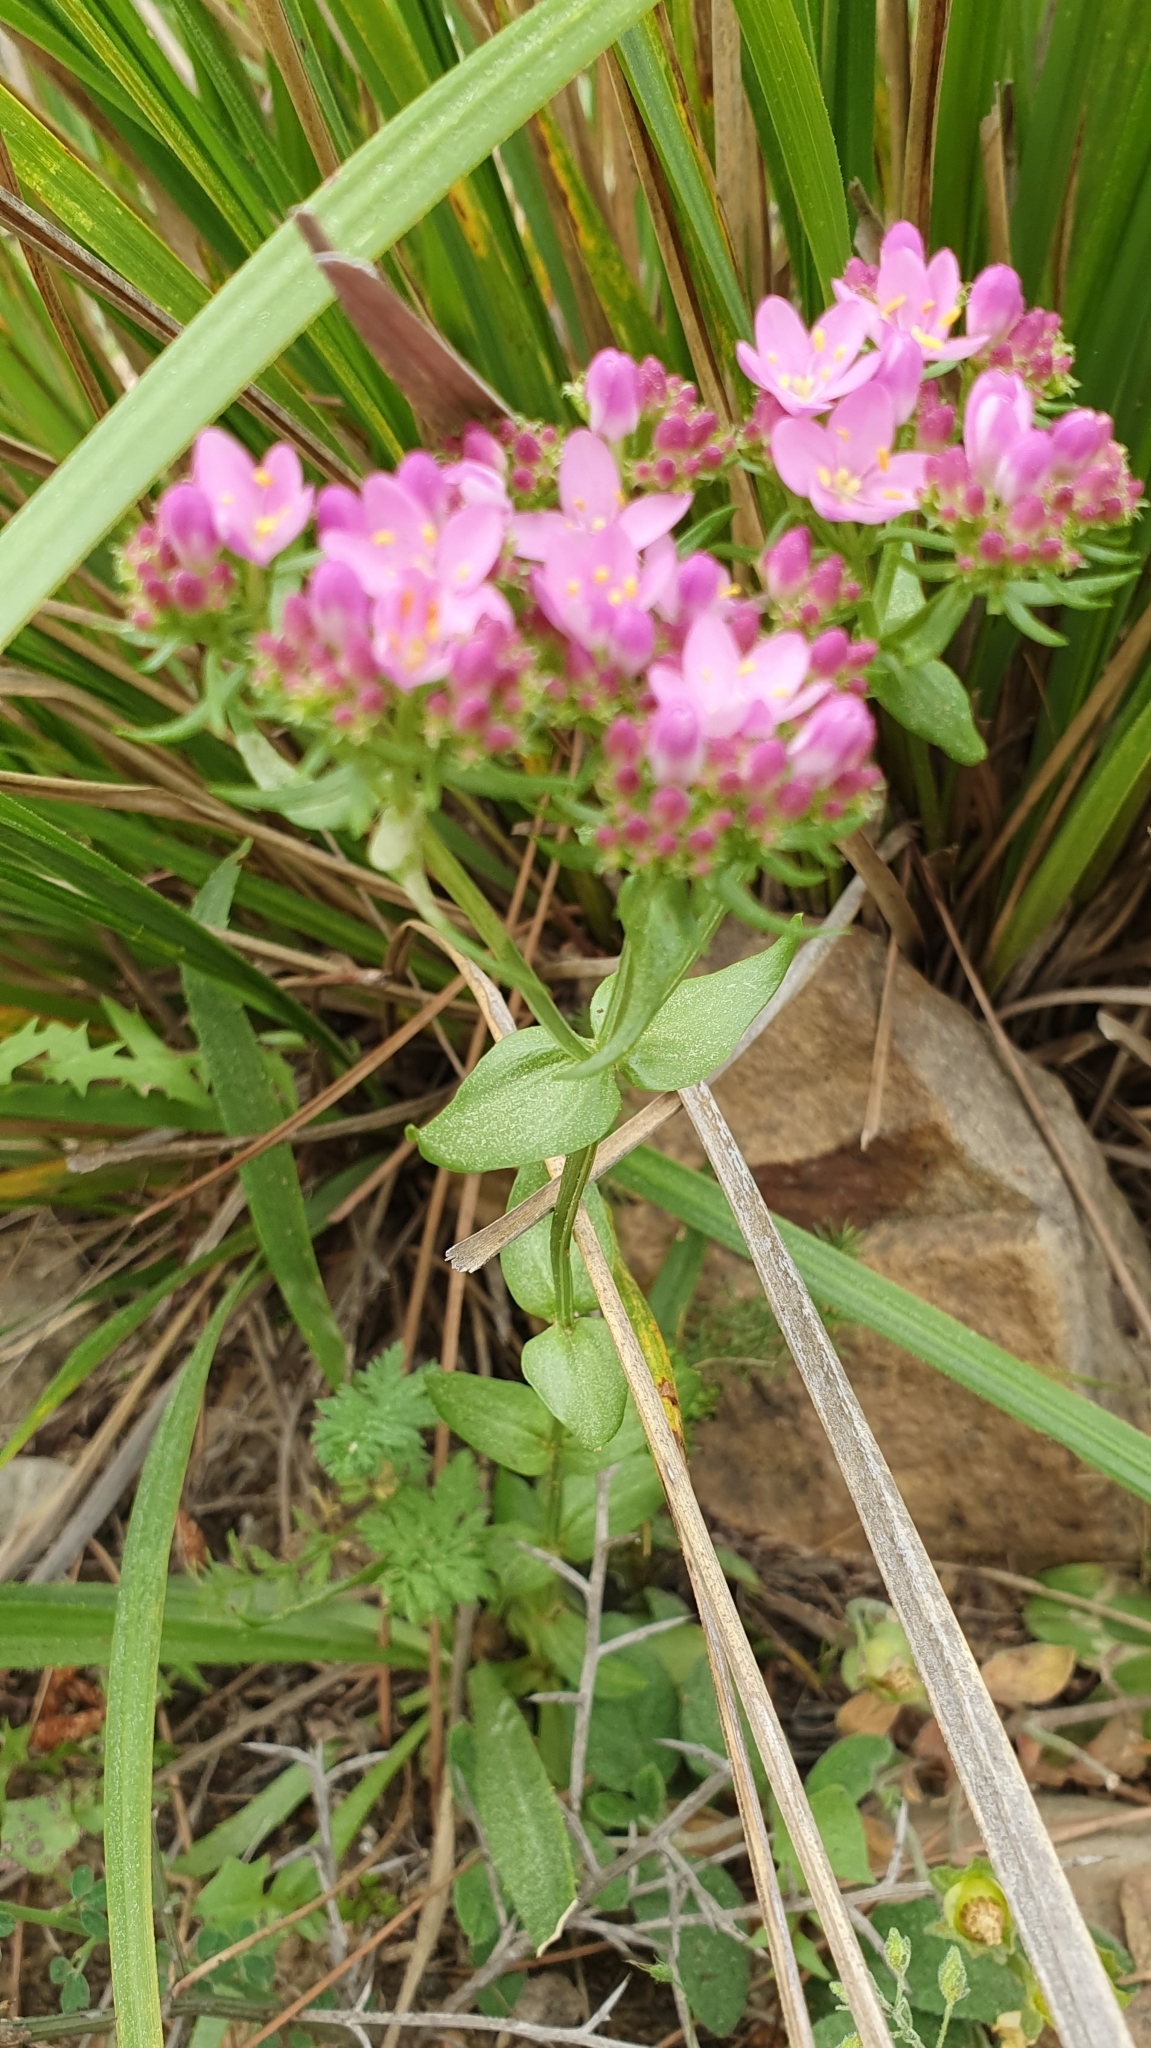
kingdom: Plantae
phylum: Tracheophyta
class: Magnoliopsida
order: Gentianales
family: Gentianaceae
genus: Centaurium
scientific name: Centaurium erythraea
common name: Common centaury
